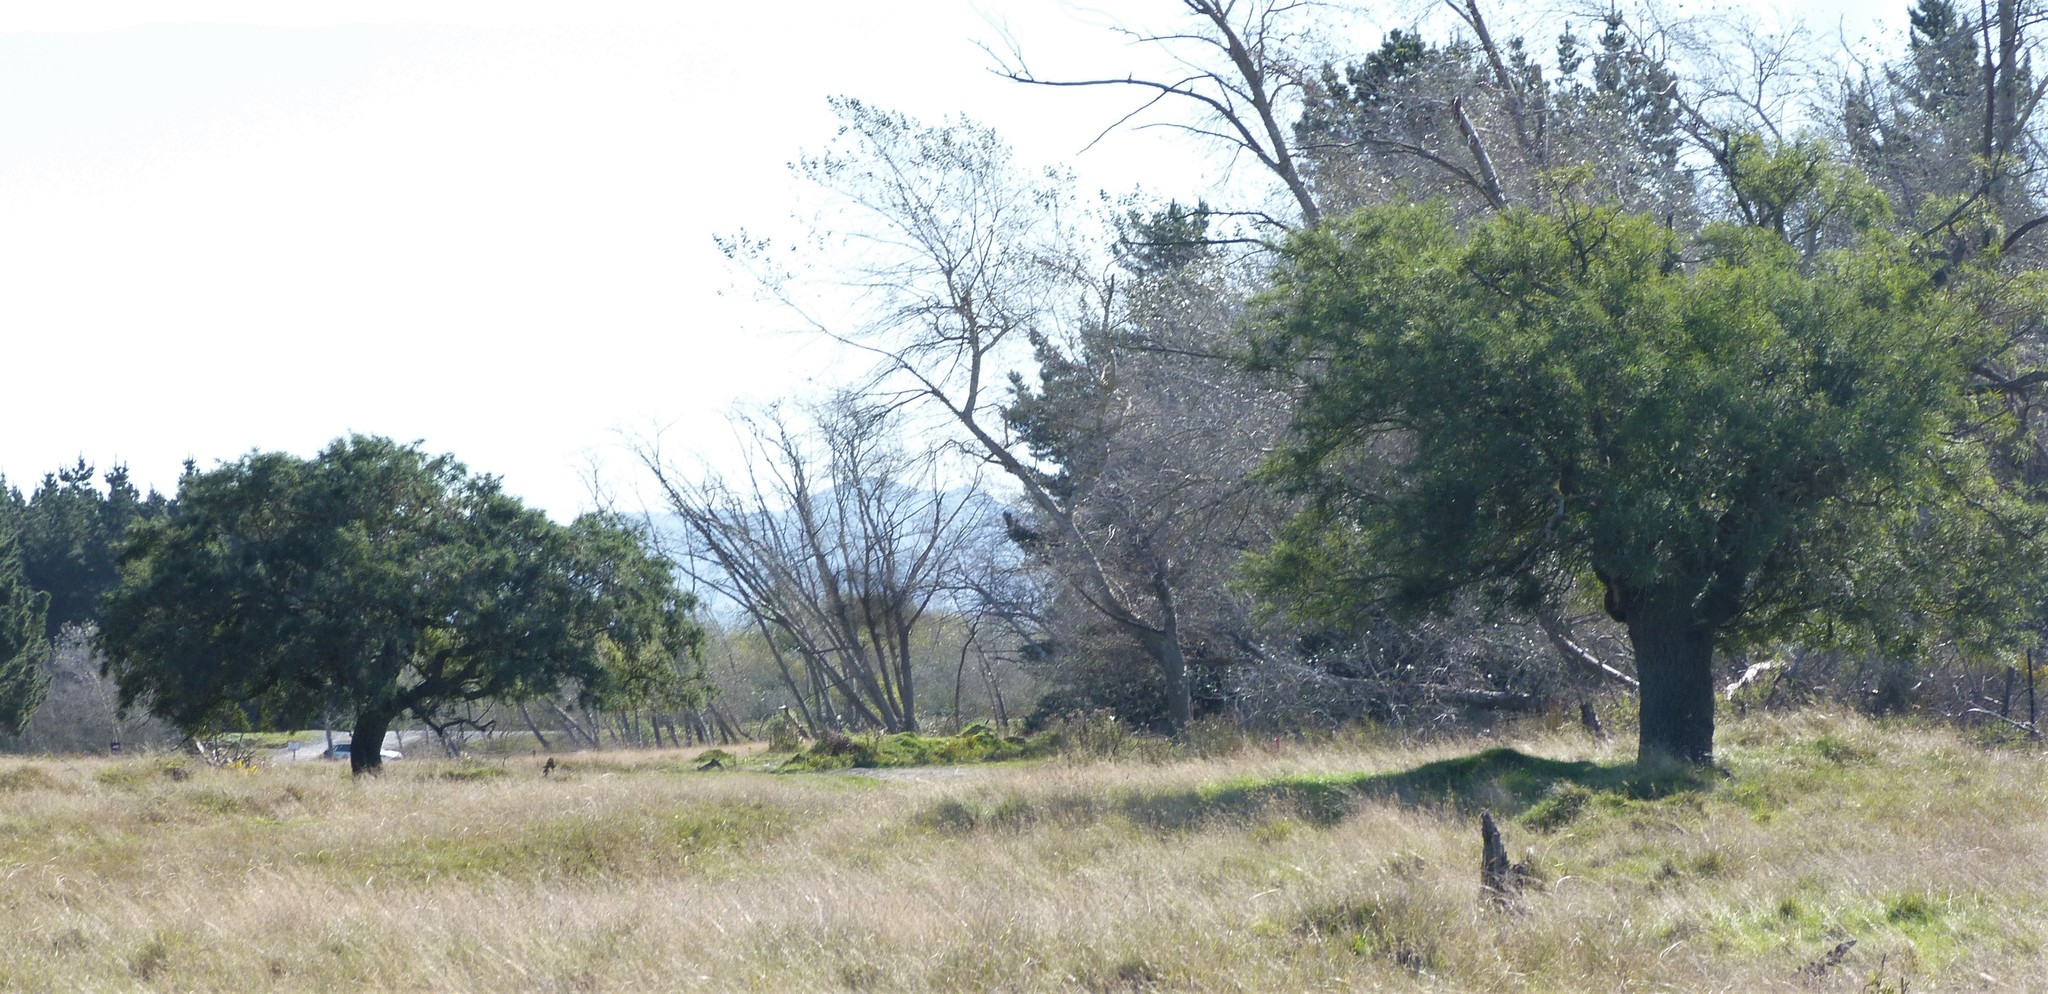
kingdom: Plantae
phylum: Tracheophyta
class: Magnoliopsida
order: Fabales
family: Fabaceae
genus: Sophora
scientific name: Sophora microphylla
